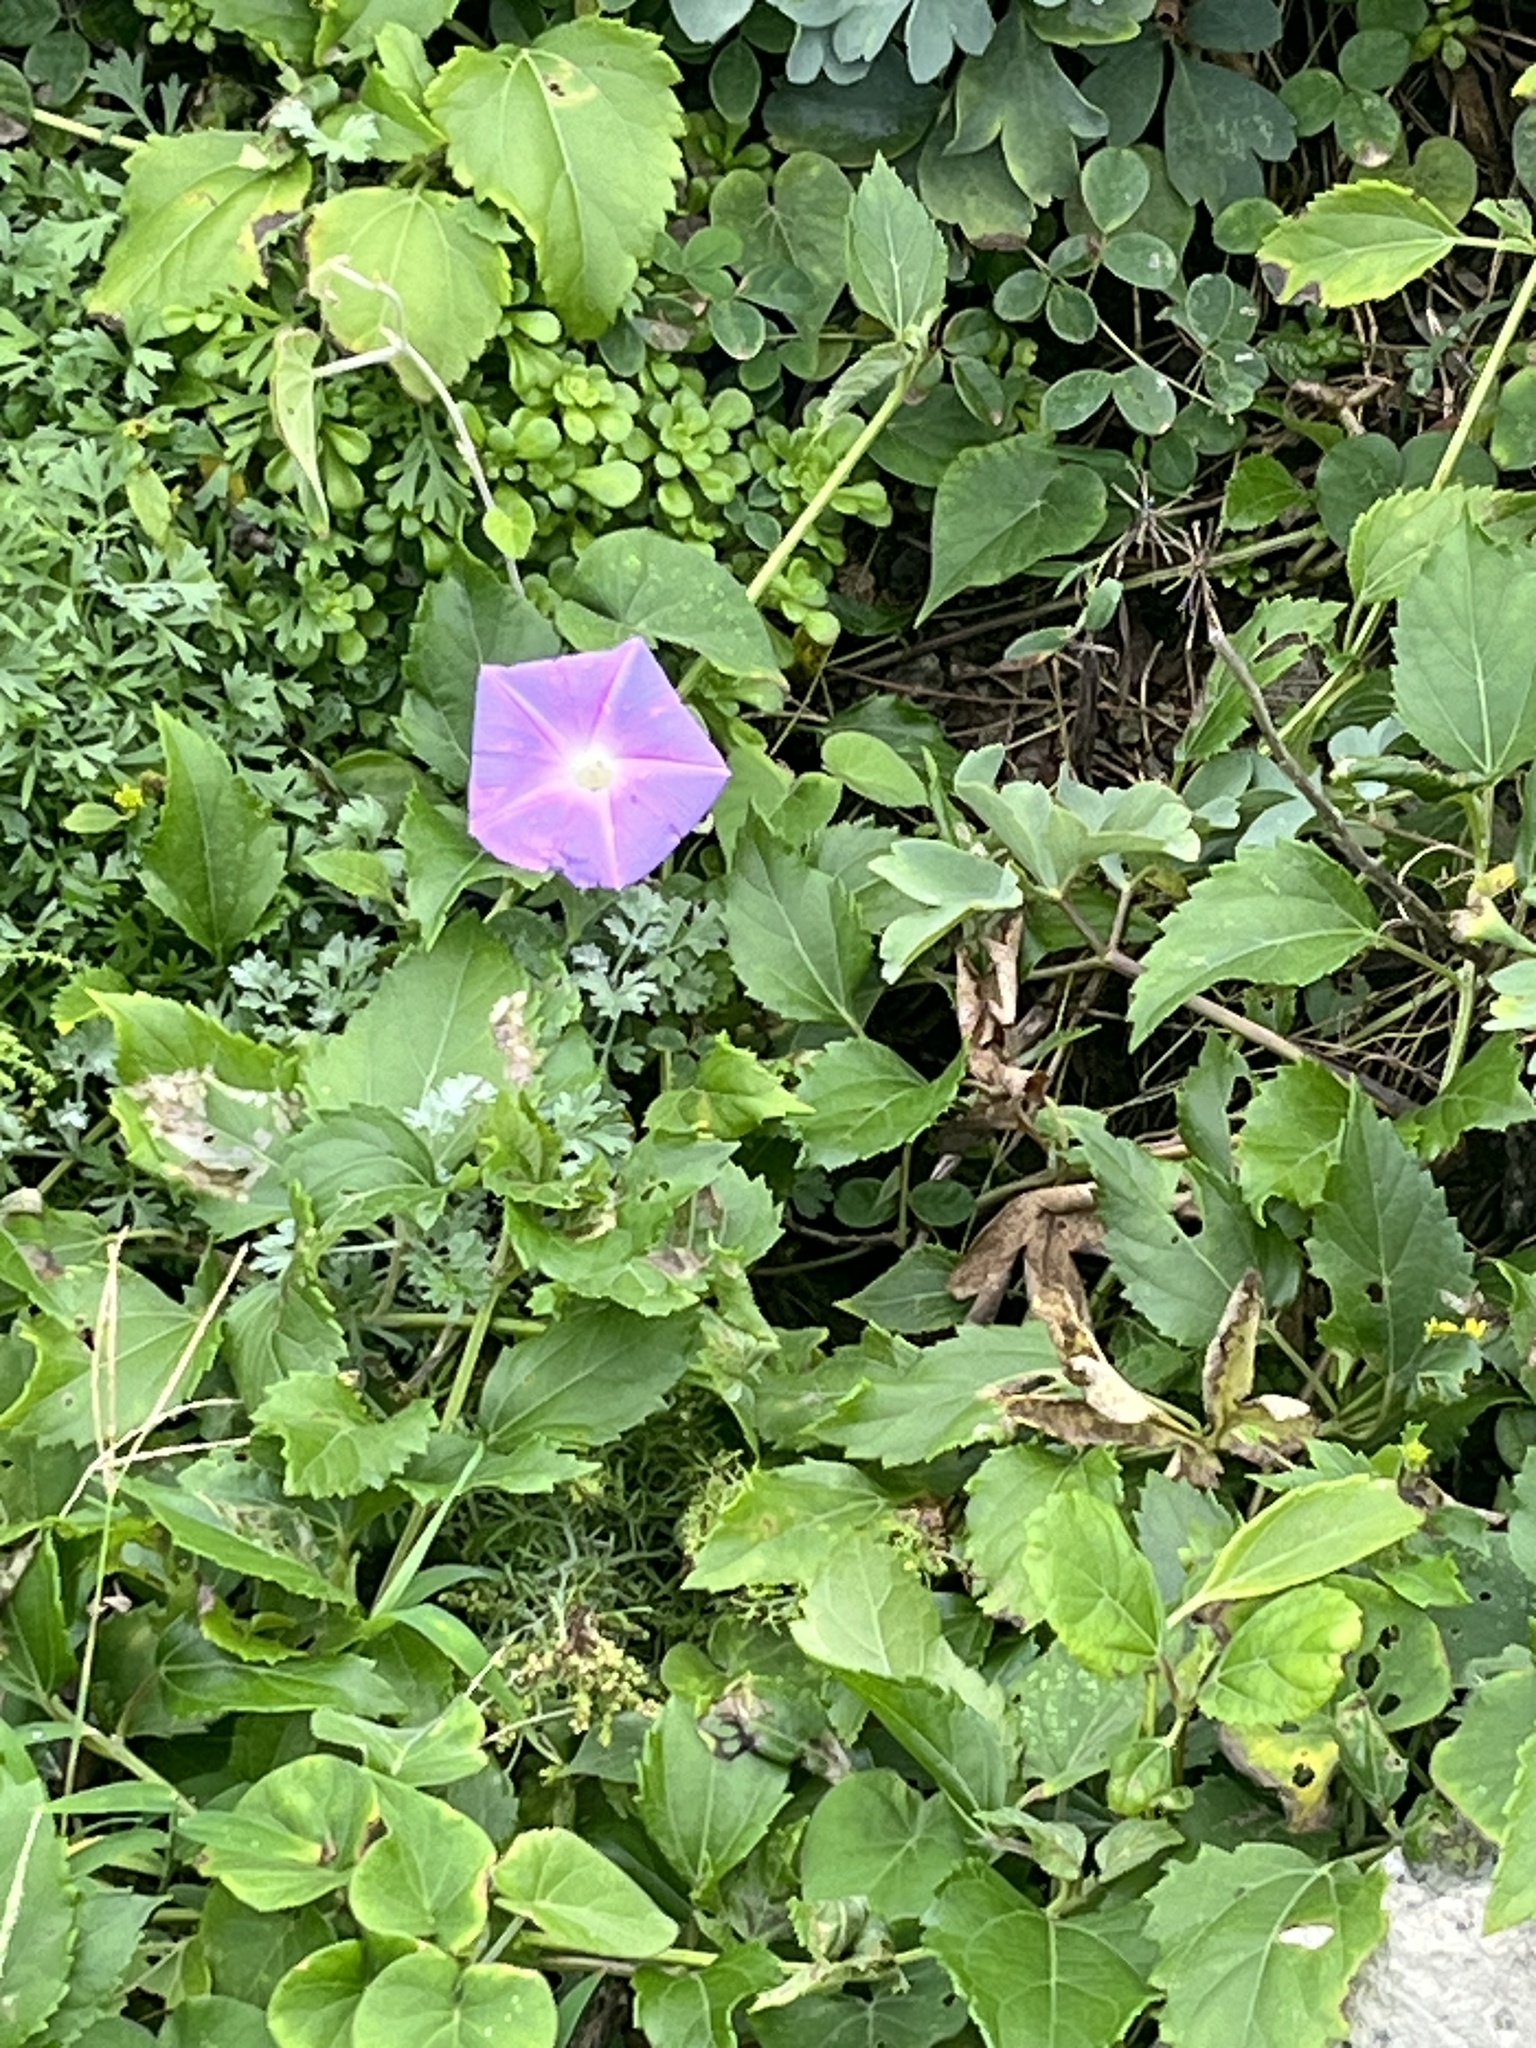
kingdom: Plantae
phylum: Tracheophyta
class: Magnoliopsida
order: Solanales
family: Convolvulaceae
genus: Ipomoea
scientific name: Ipomoea indica
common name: Blue dawnflower
